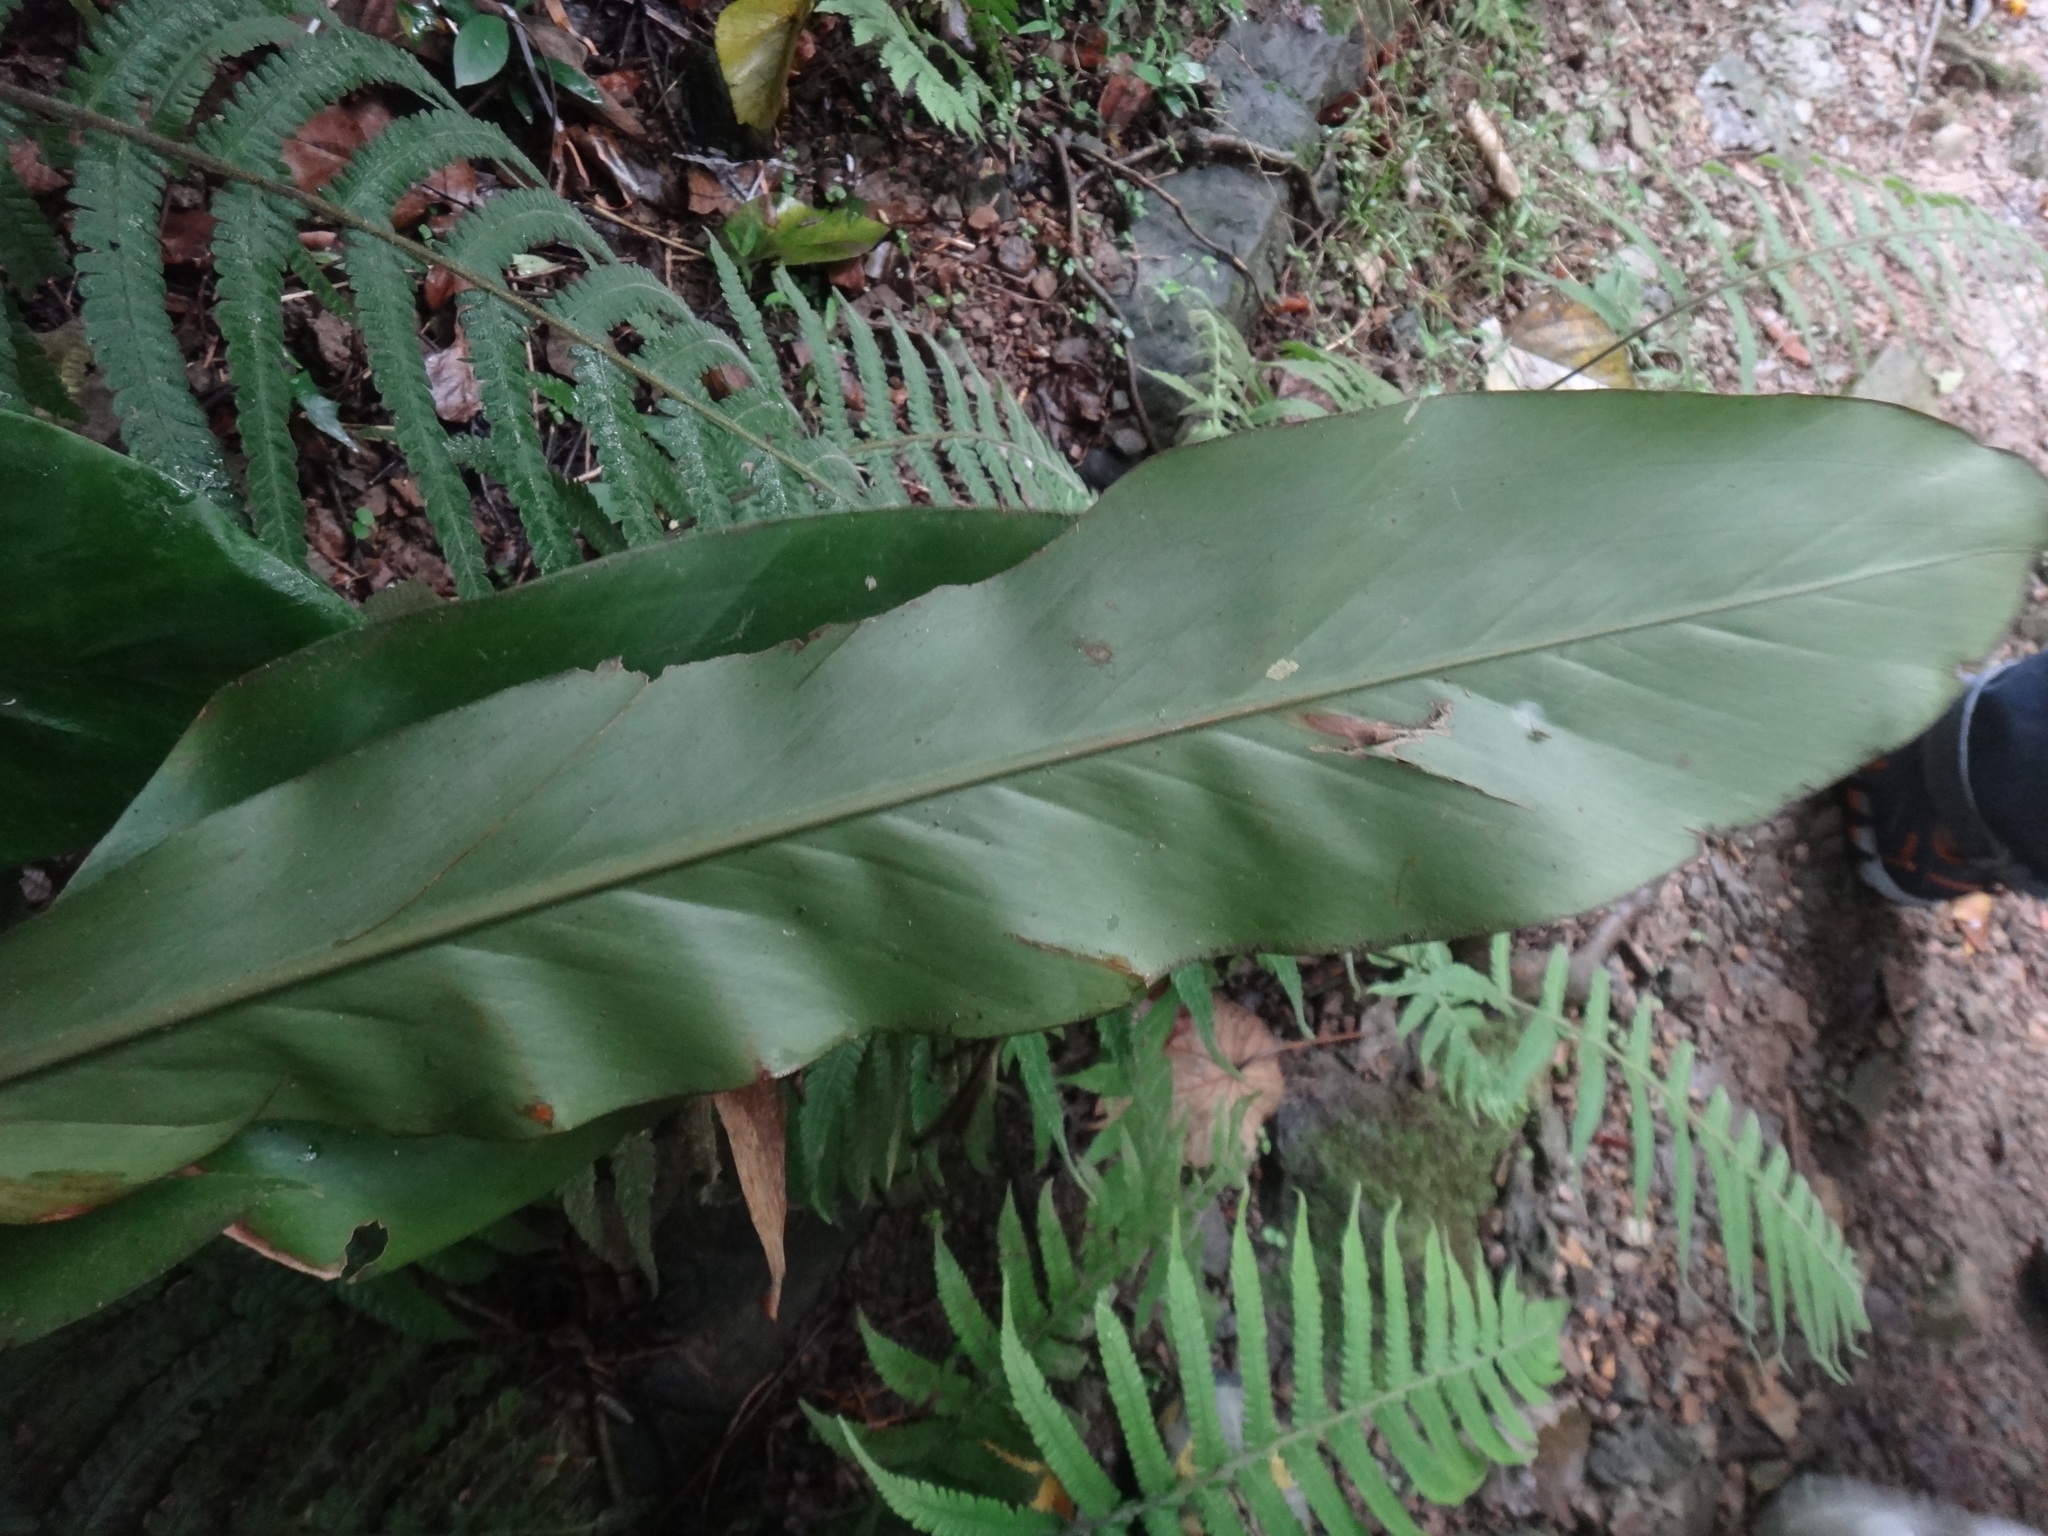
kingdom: Plantae
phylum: Tracheophyta
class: Liliopsida
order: Zingiberales
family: Zingiberaceae
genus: Alpinia
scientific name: Alpinia uraiensis
